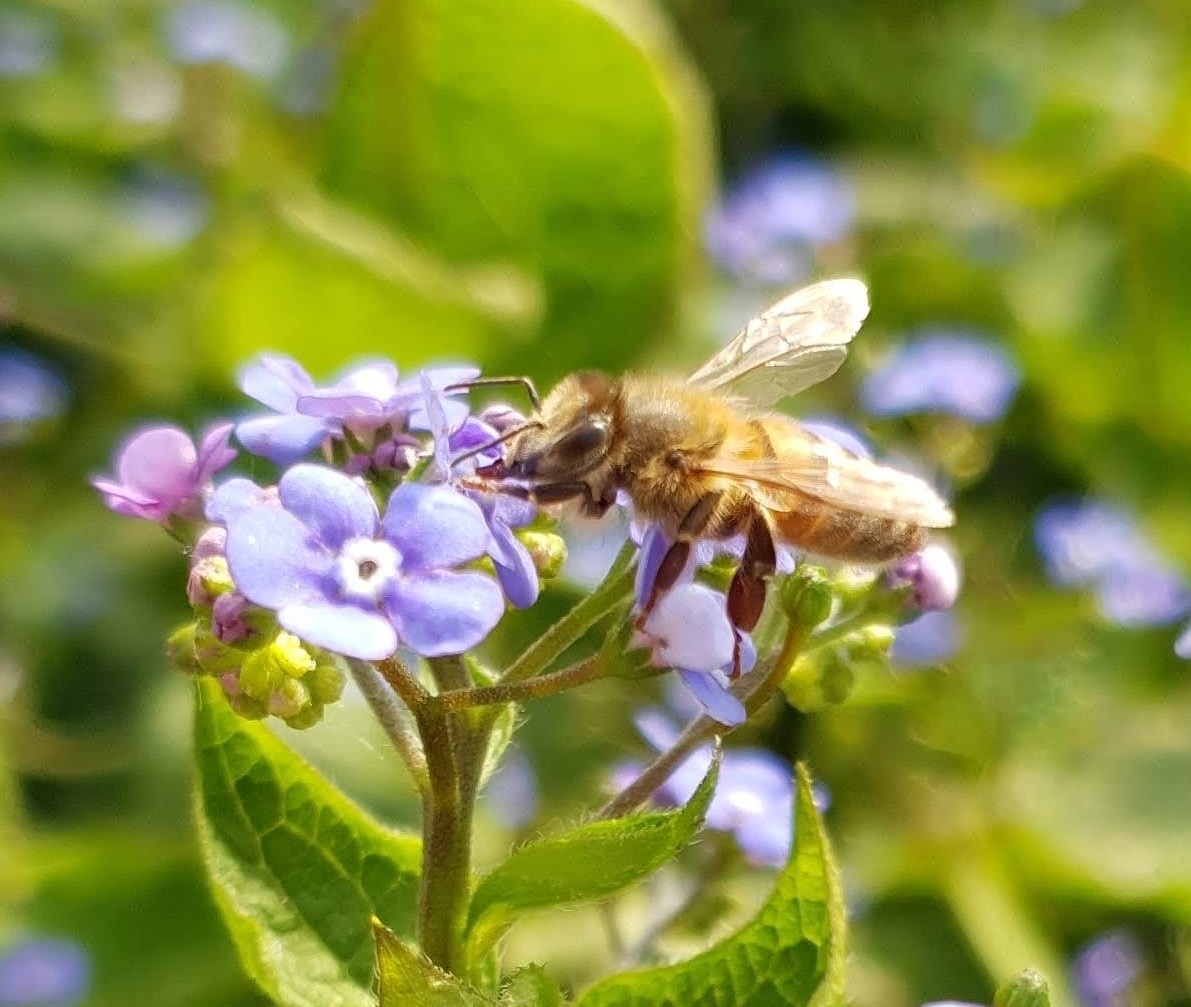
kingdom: Animalia
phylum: Arthropoda
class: Insecta
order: Hymenoptera
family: Apidae
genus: Apis
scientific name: Apis mellifera
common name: Honey bee
